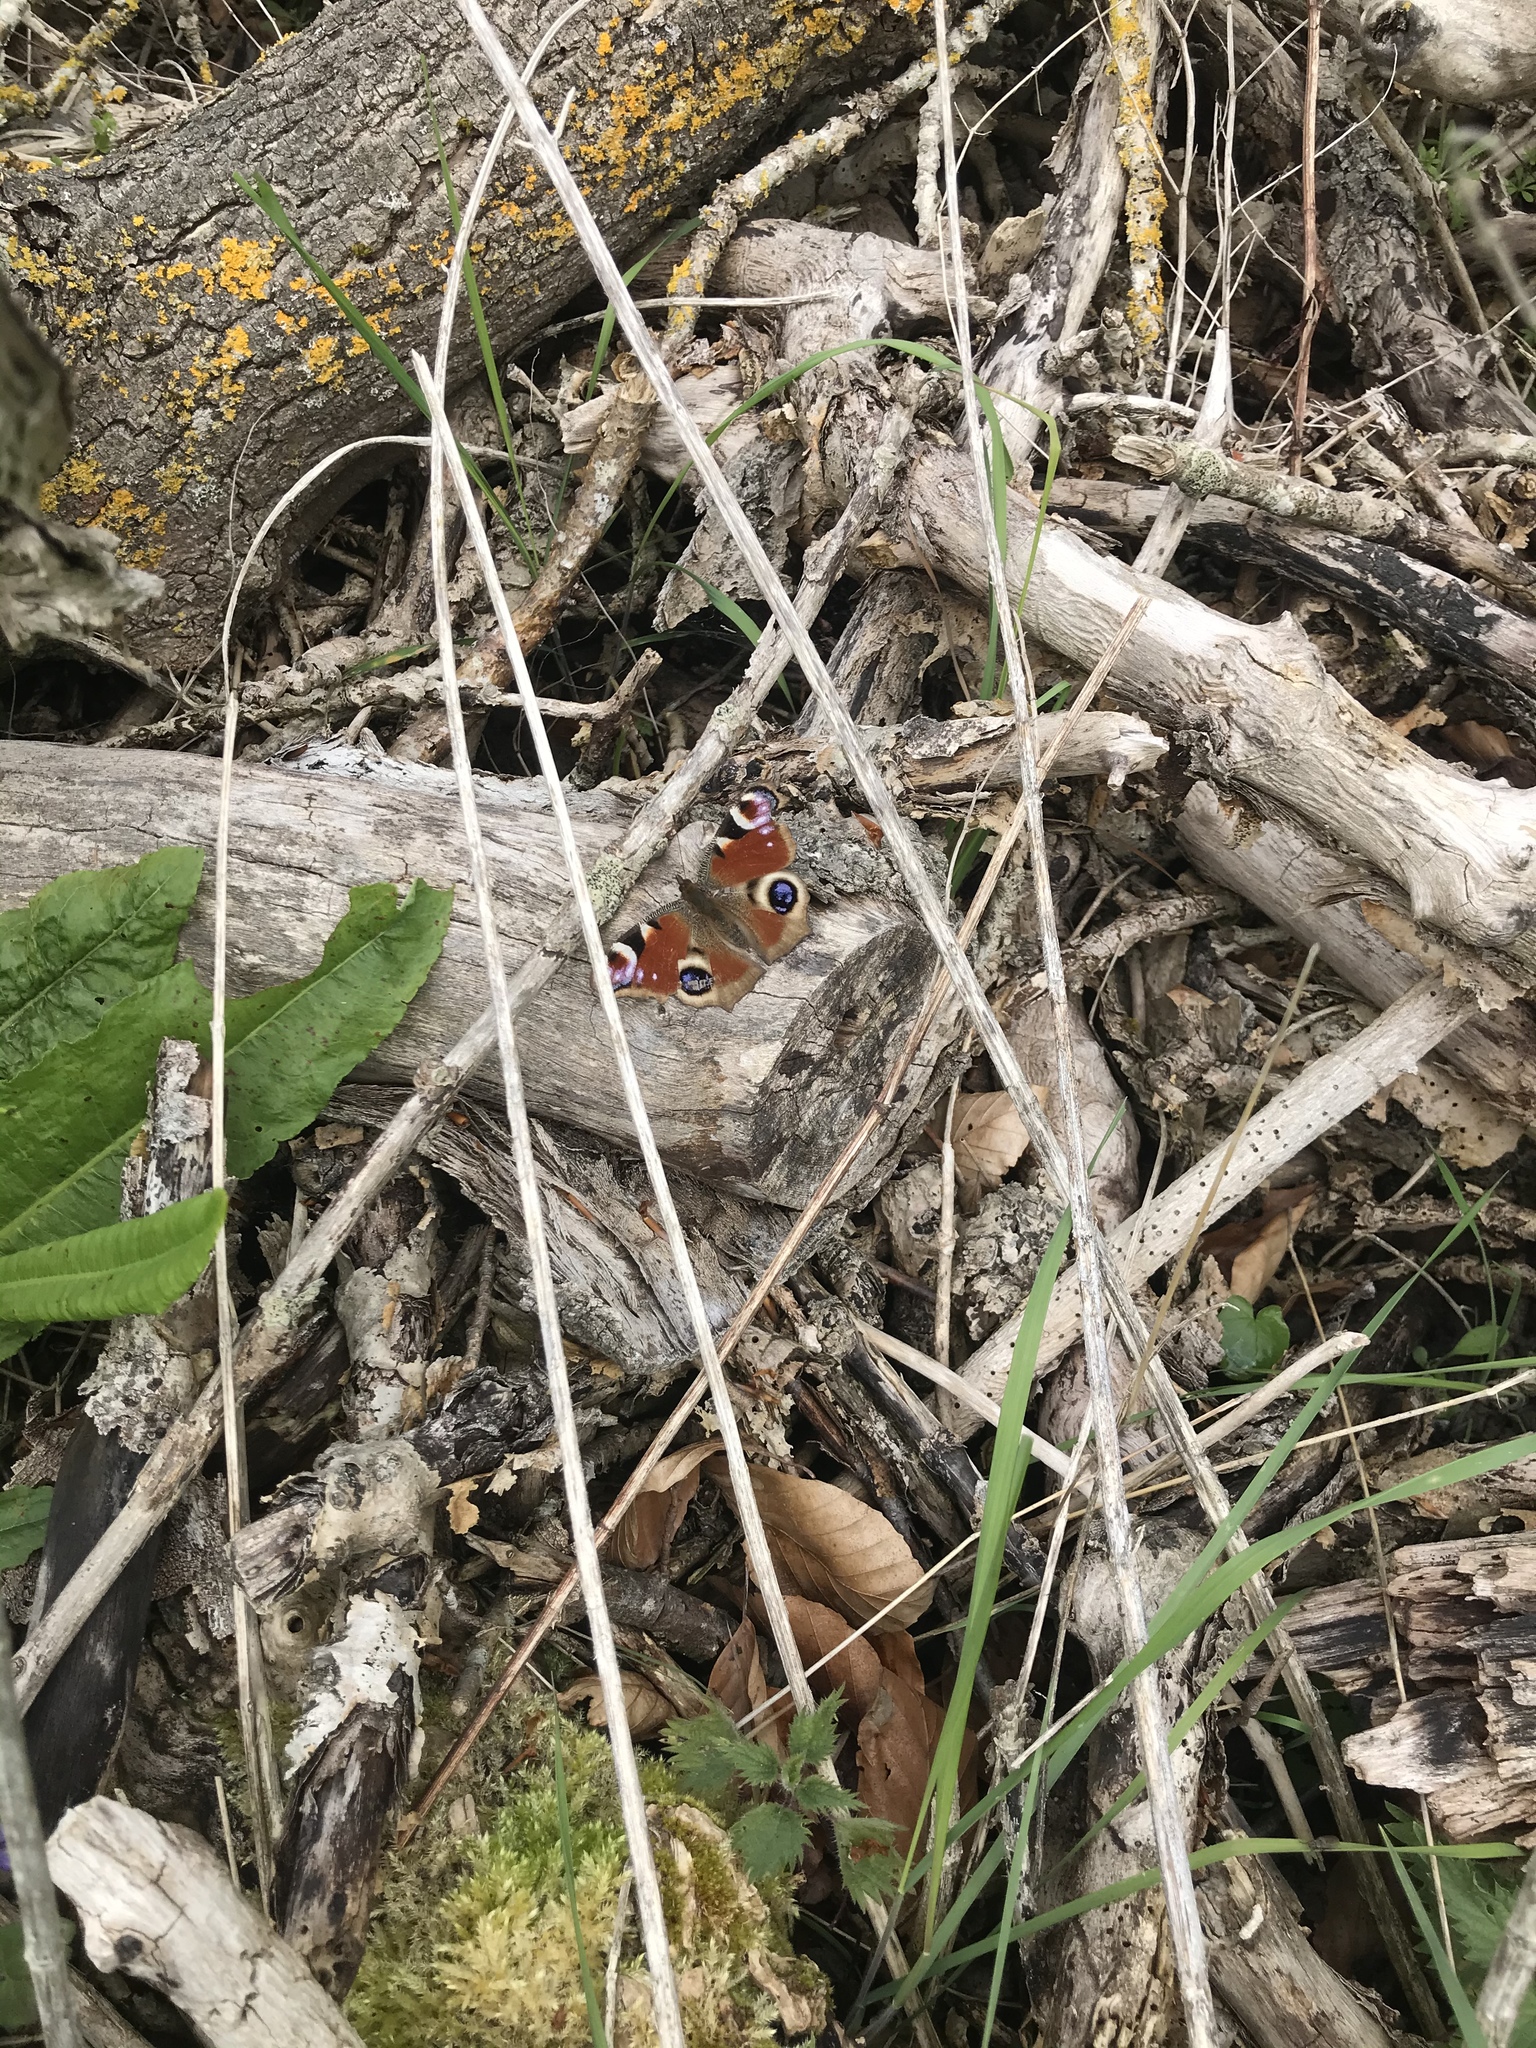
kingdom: Animalia
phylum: Arthropoda
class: Insecta
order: Lepidoptera
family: Nymphalidae
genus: Aglais
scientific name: Aglais io
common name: Peacock
